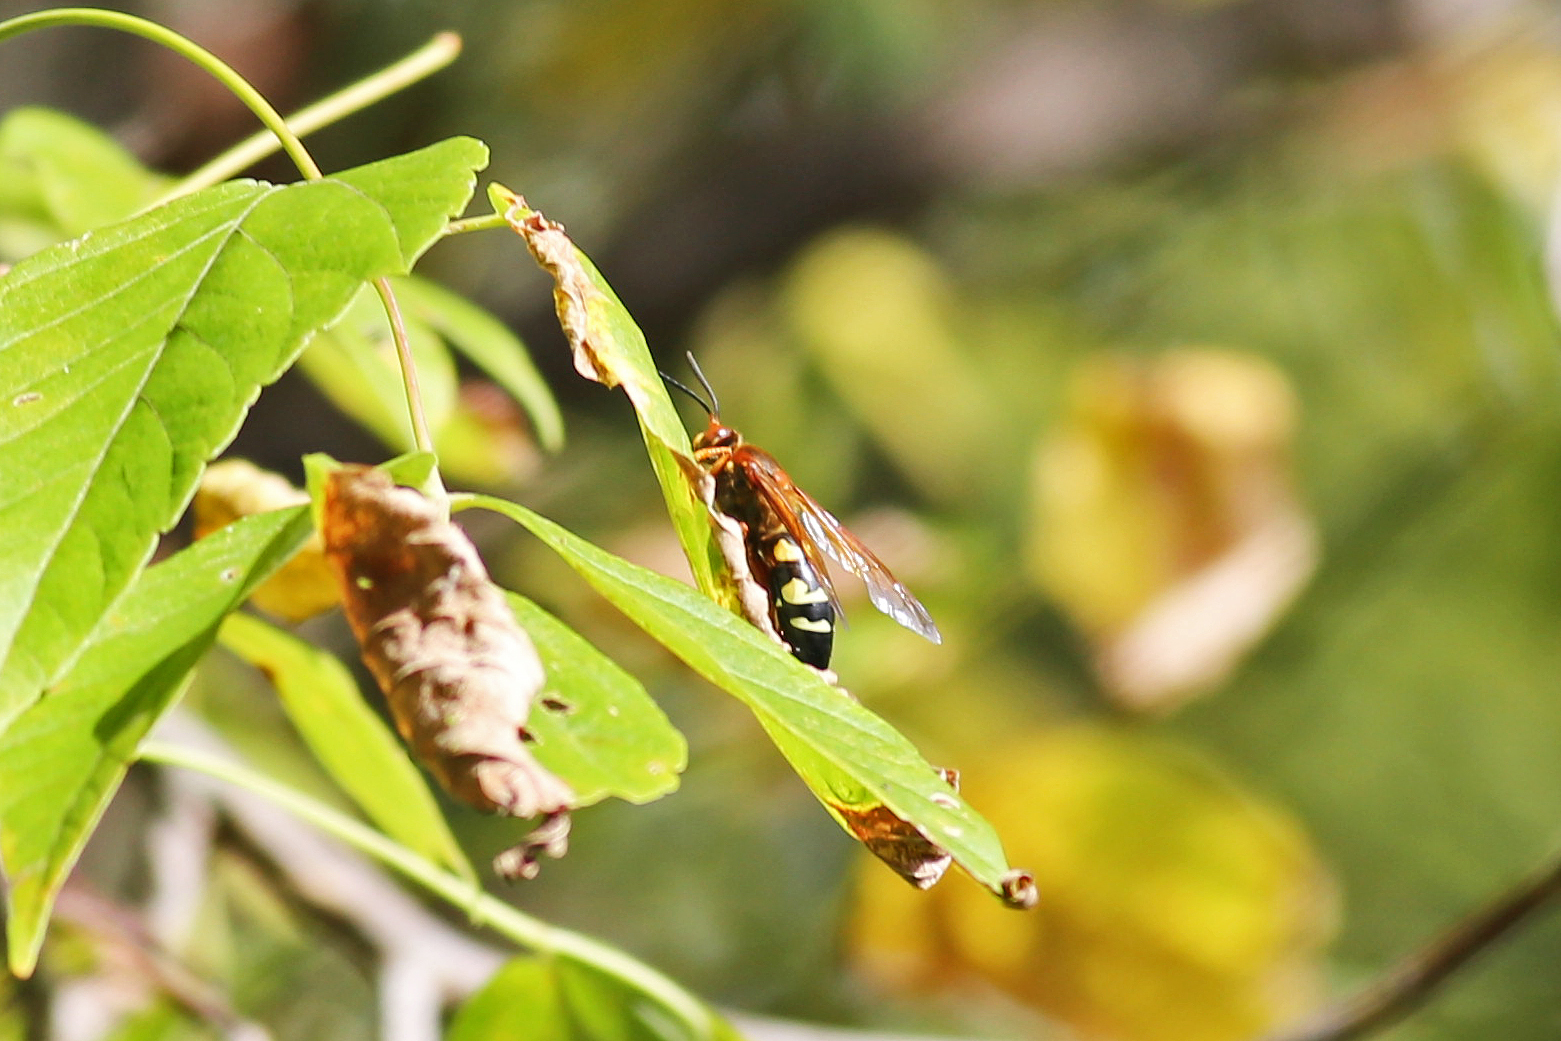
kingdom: Animalia
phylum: Arthropoda
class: Insecta
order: Hymenoptera
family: Crabronidae
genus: Sphecius
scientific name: Sphecius speciosus
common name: Cicada killer
